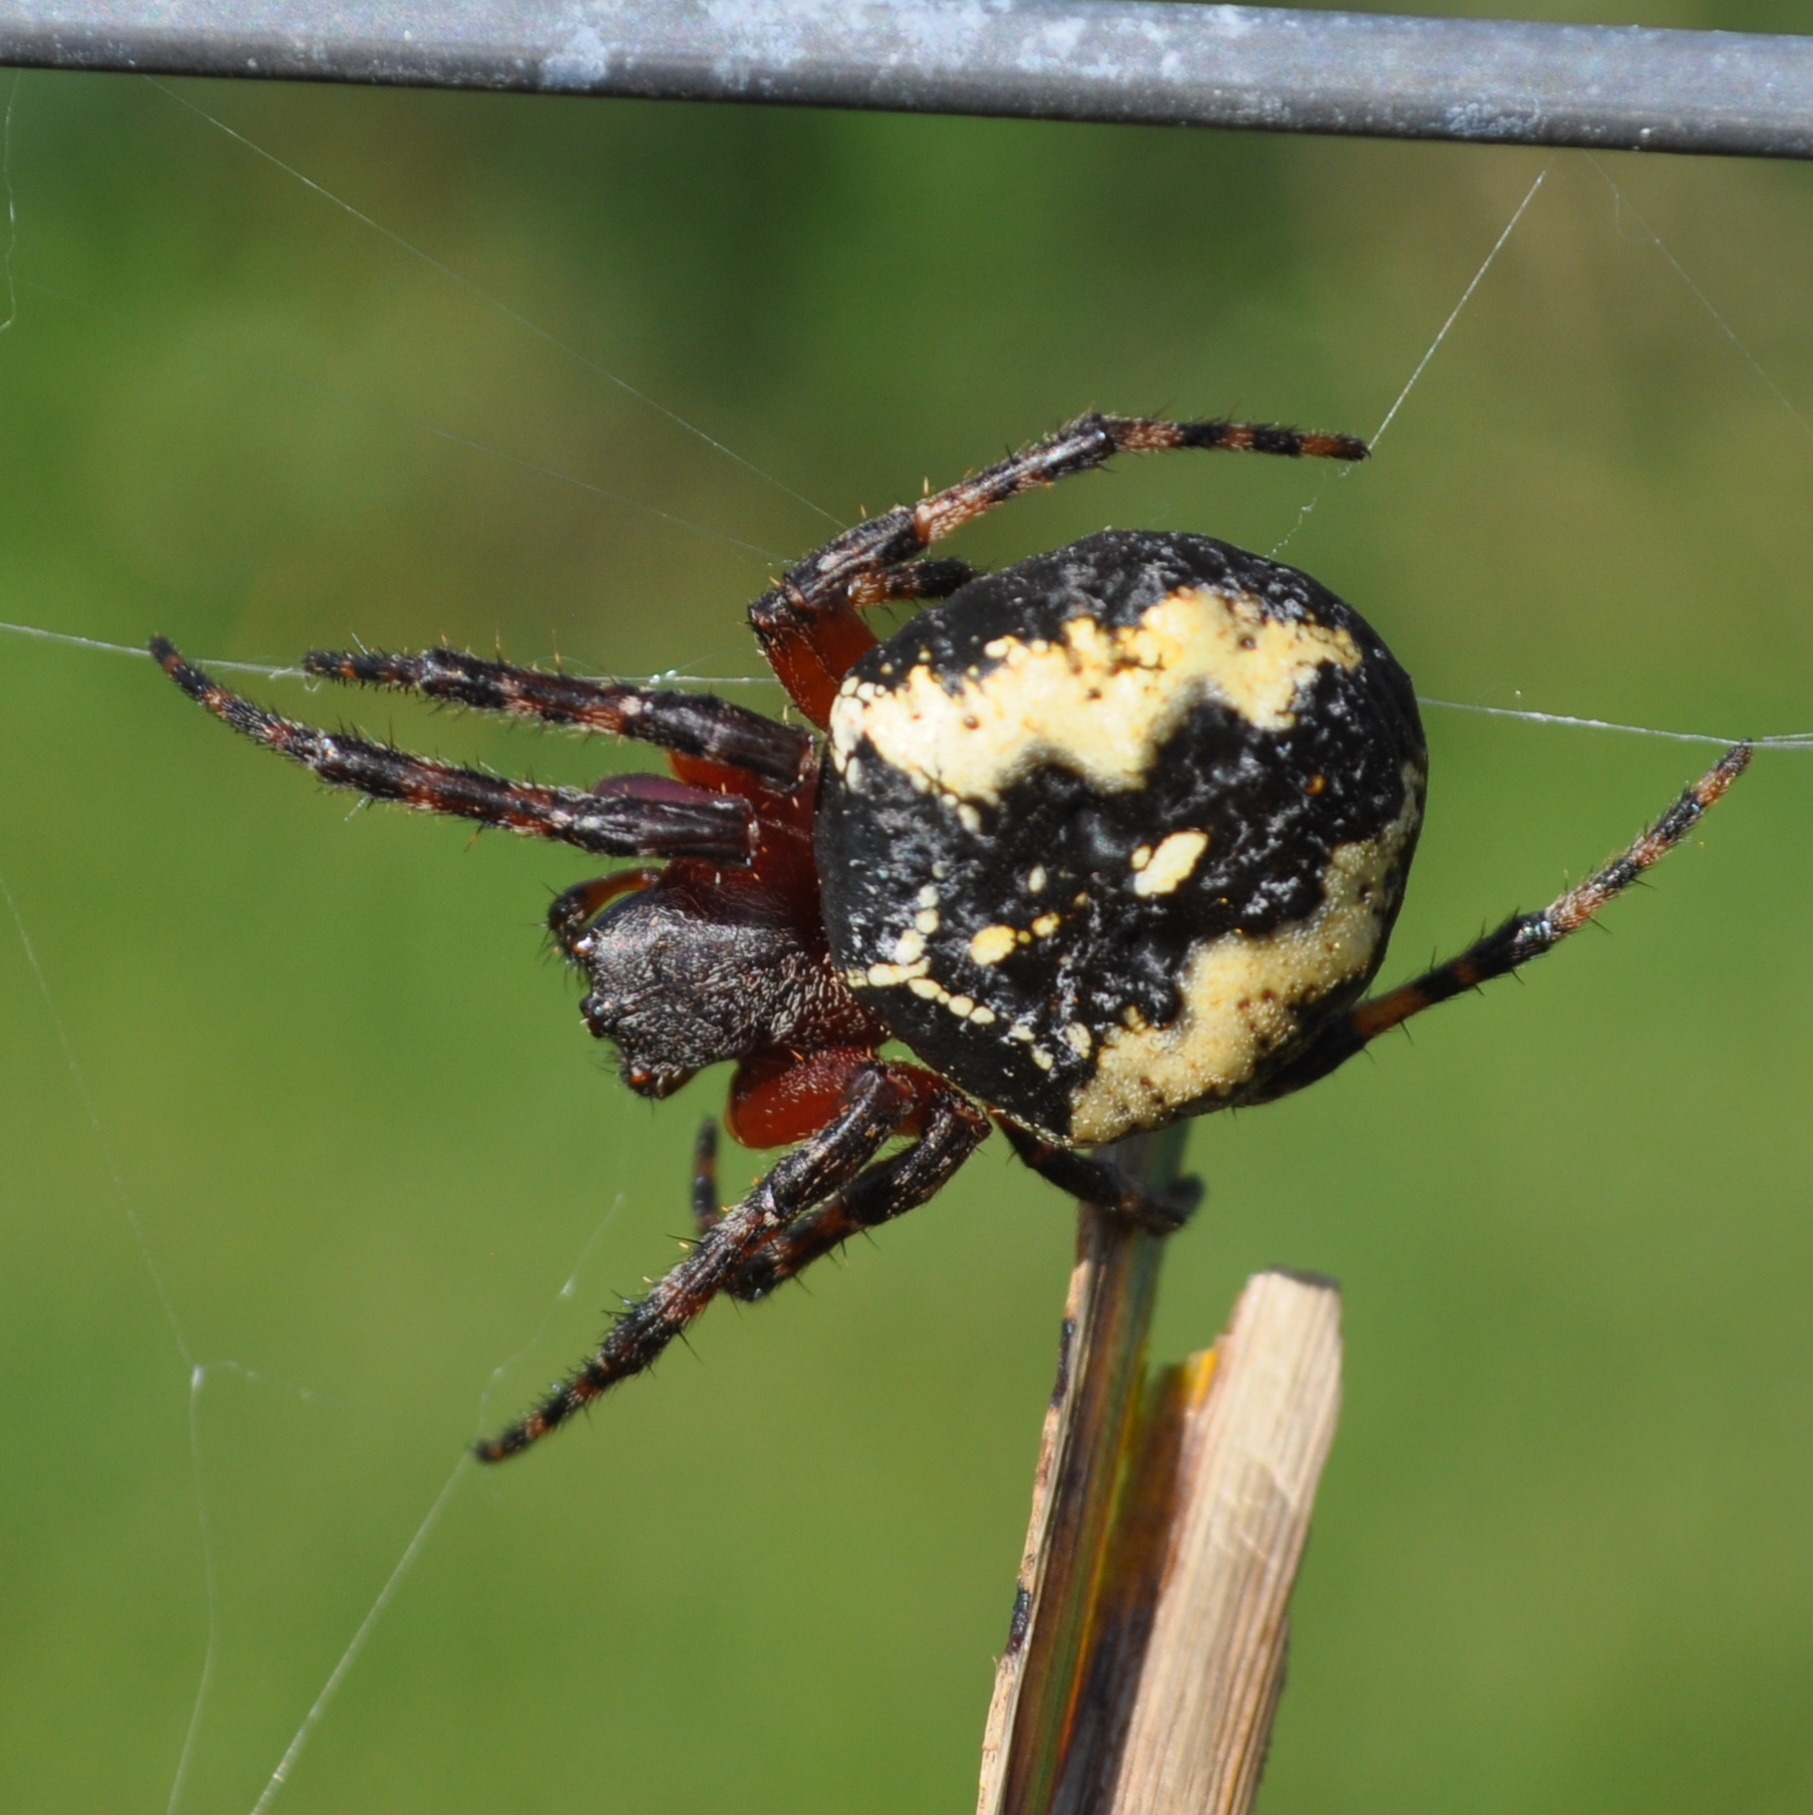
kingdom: Animalia
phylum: Arthropoda
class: Arachnida
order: Araneae
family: Araneidae
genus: Parawixia
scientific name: Parawixia undulata
